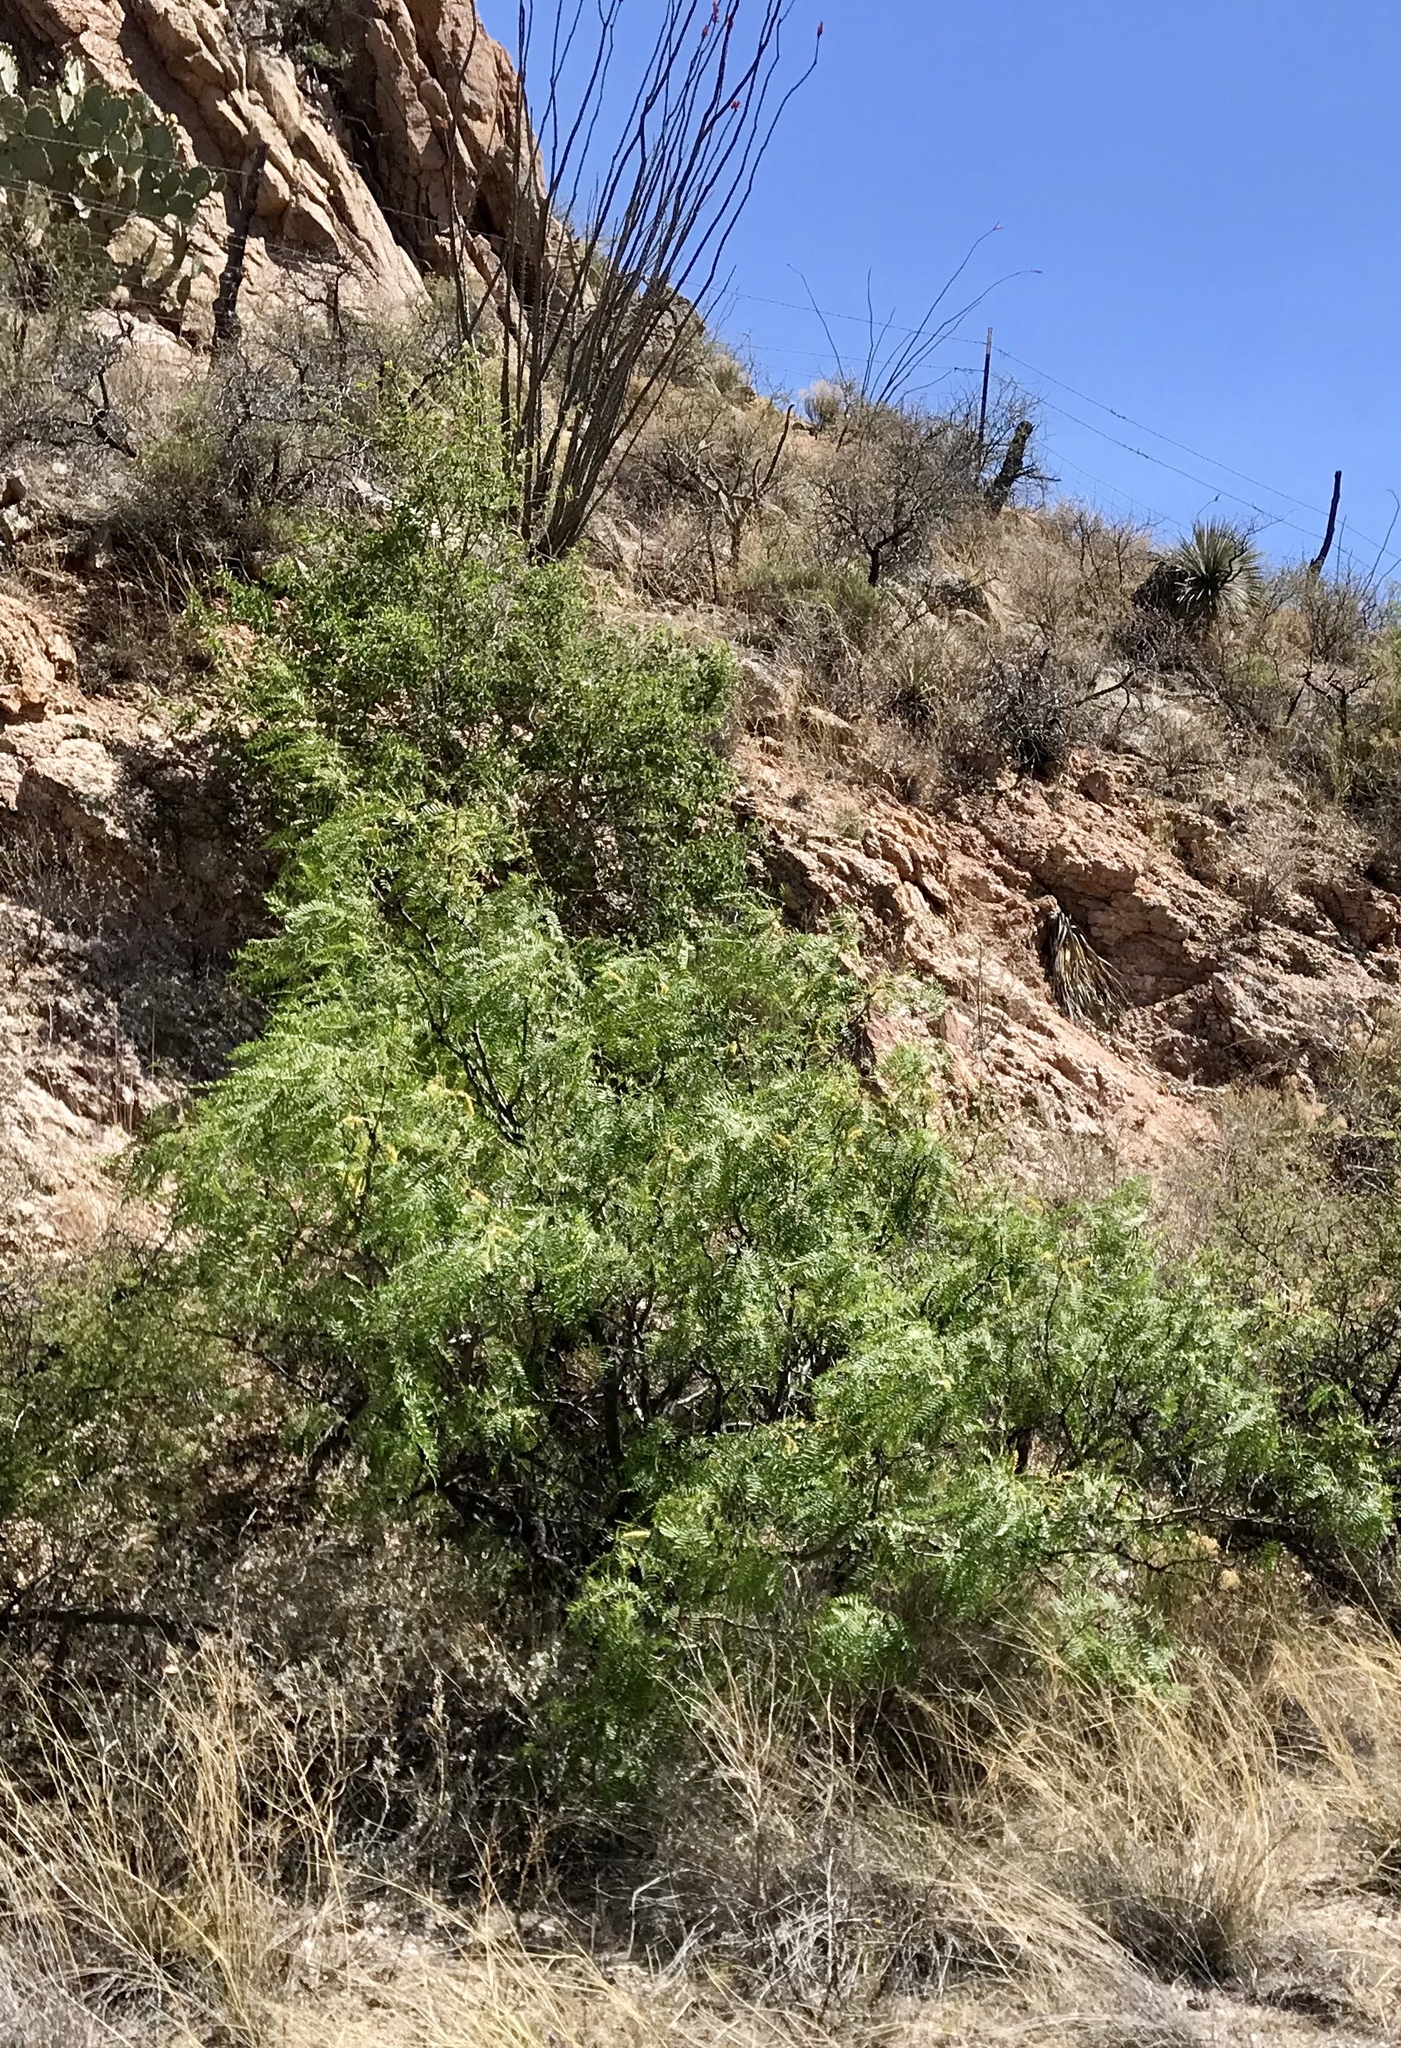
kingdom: Plantae
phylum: Tracheophyta
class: Magnoliopsida
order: Fabales
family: Fabaceae
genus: Prosopis
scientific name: Prosopis glandulosa
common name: Honey mesquite
